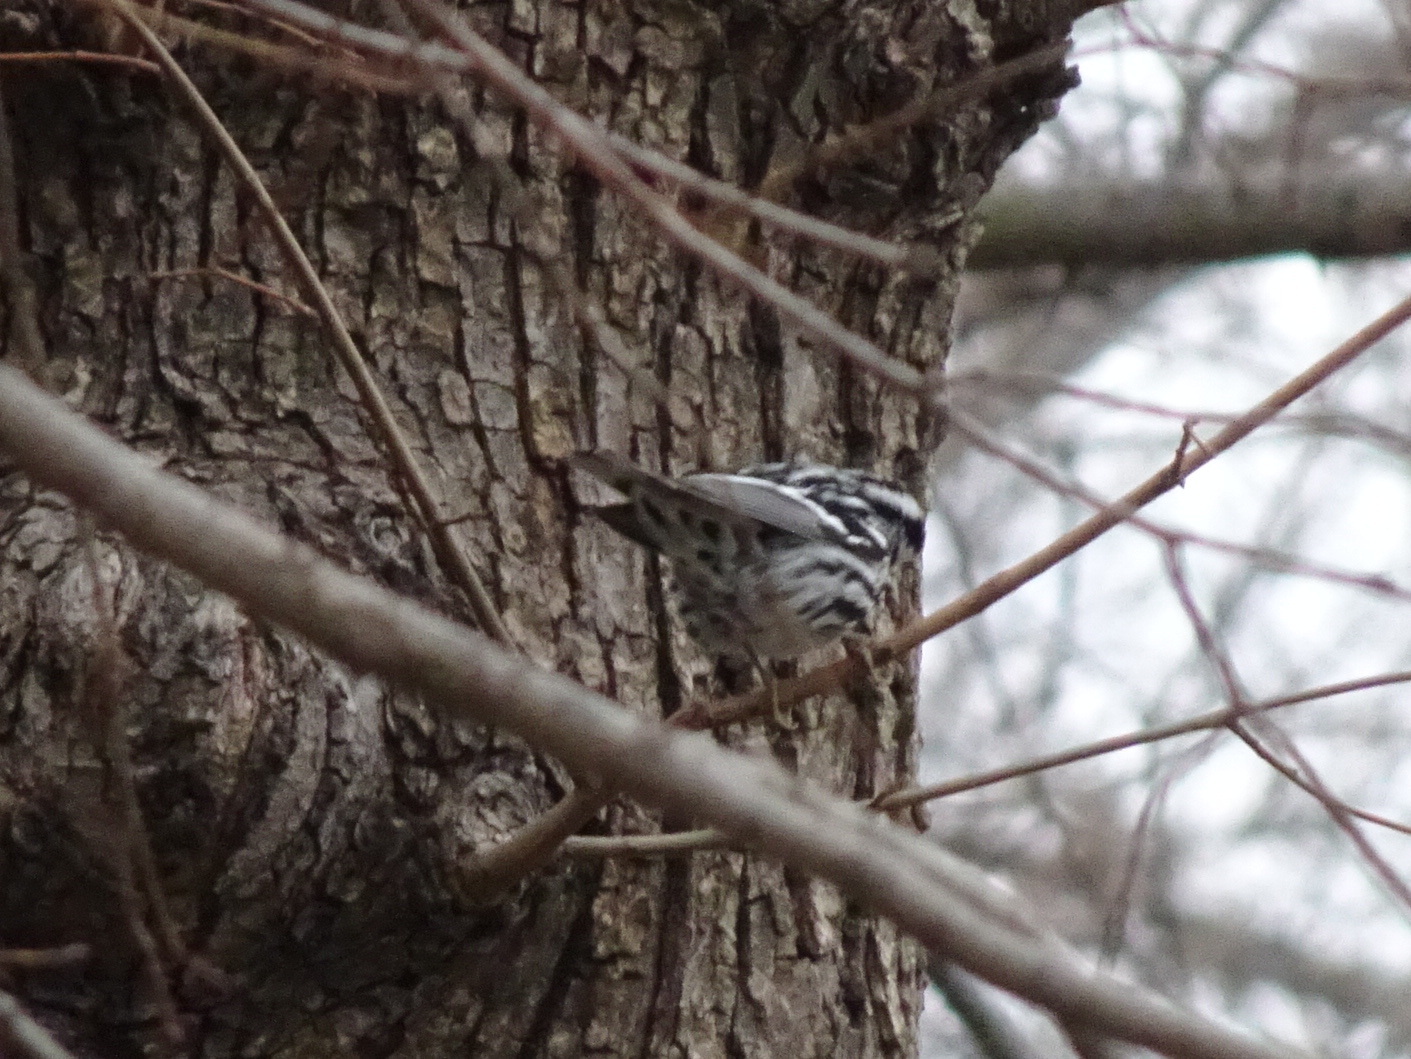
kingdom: Animalia
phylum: Chordata
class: Aves
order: Passeriformes
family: Parulidae
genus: Mniotilta
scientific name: Mniotilta varia
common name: Black-and-white warbler
